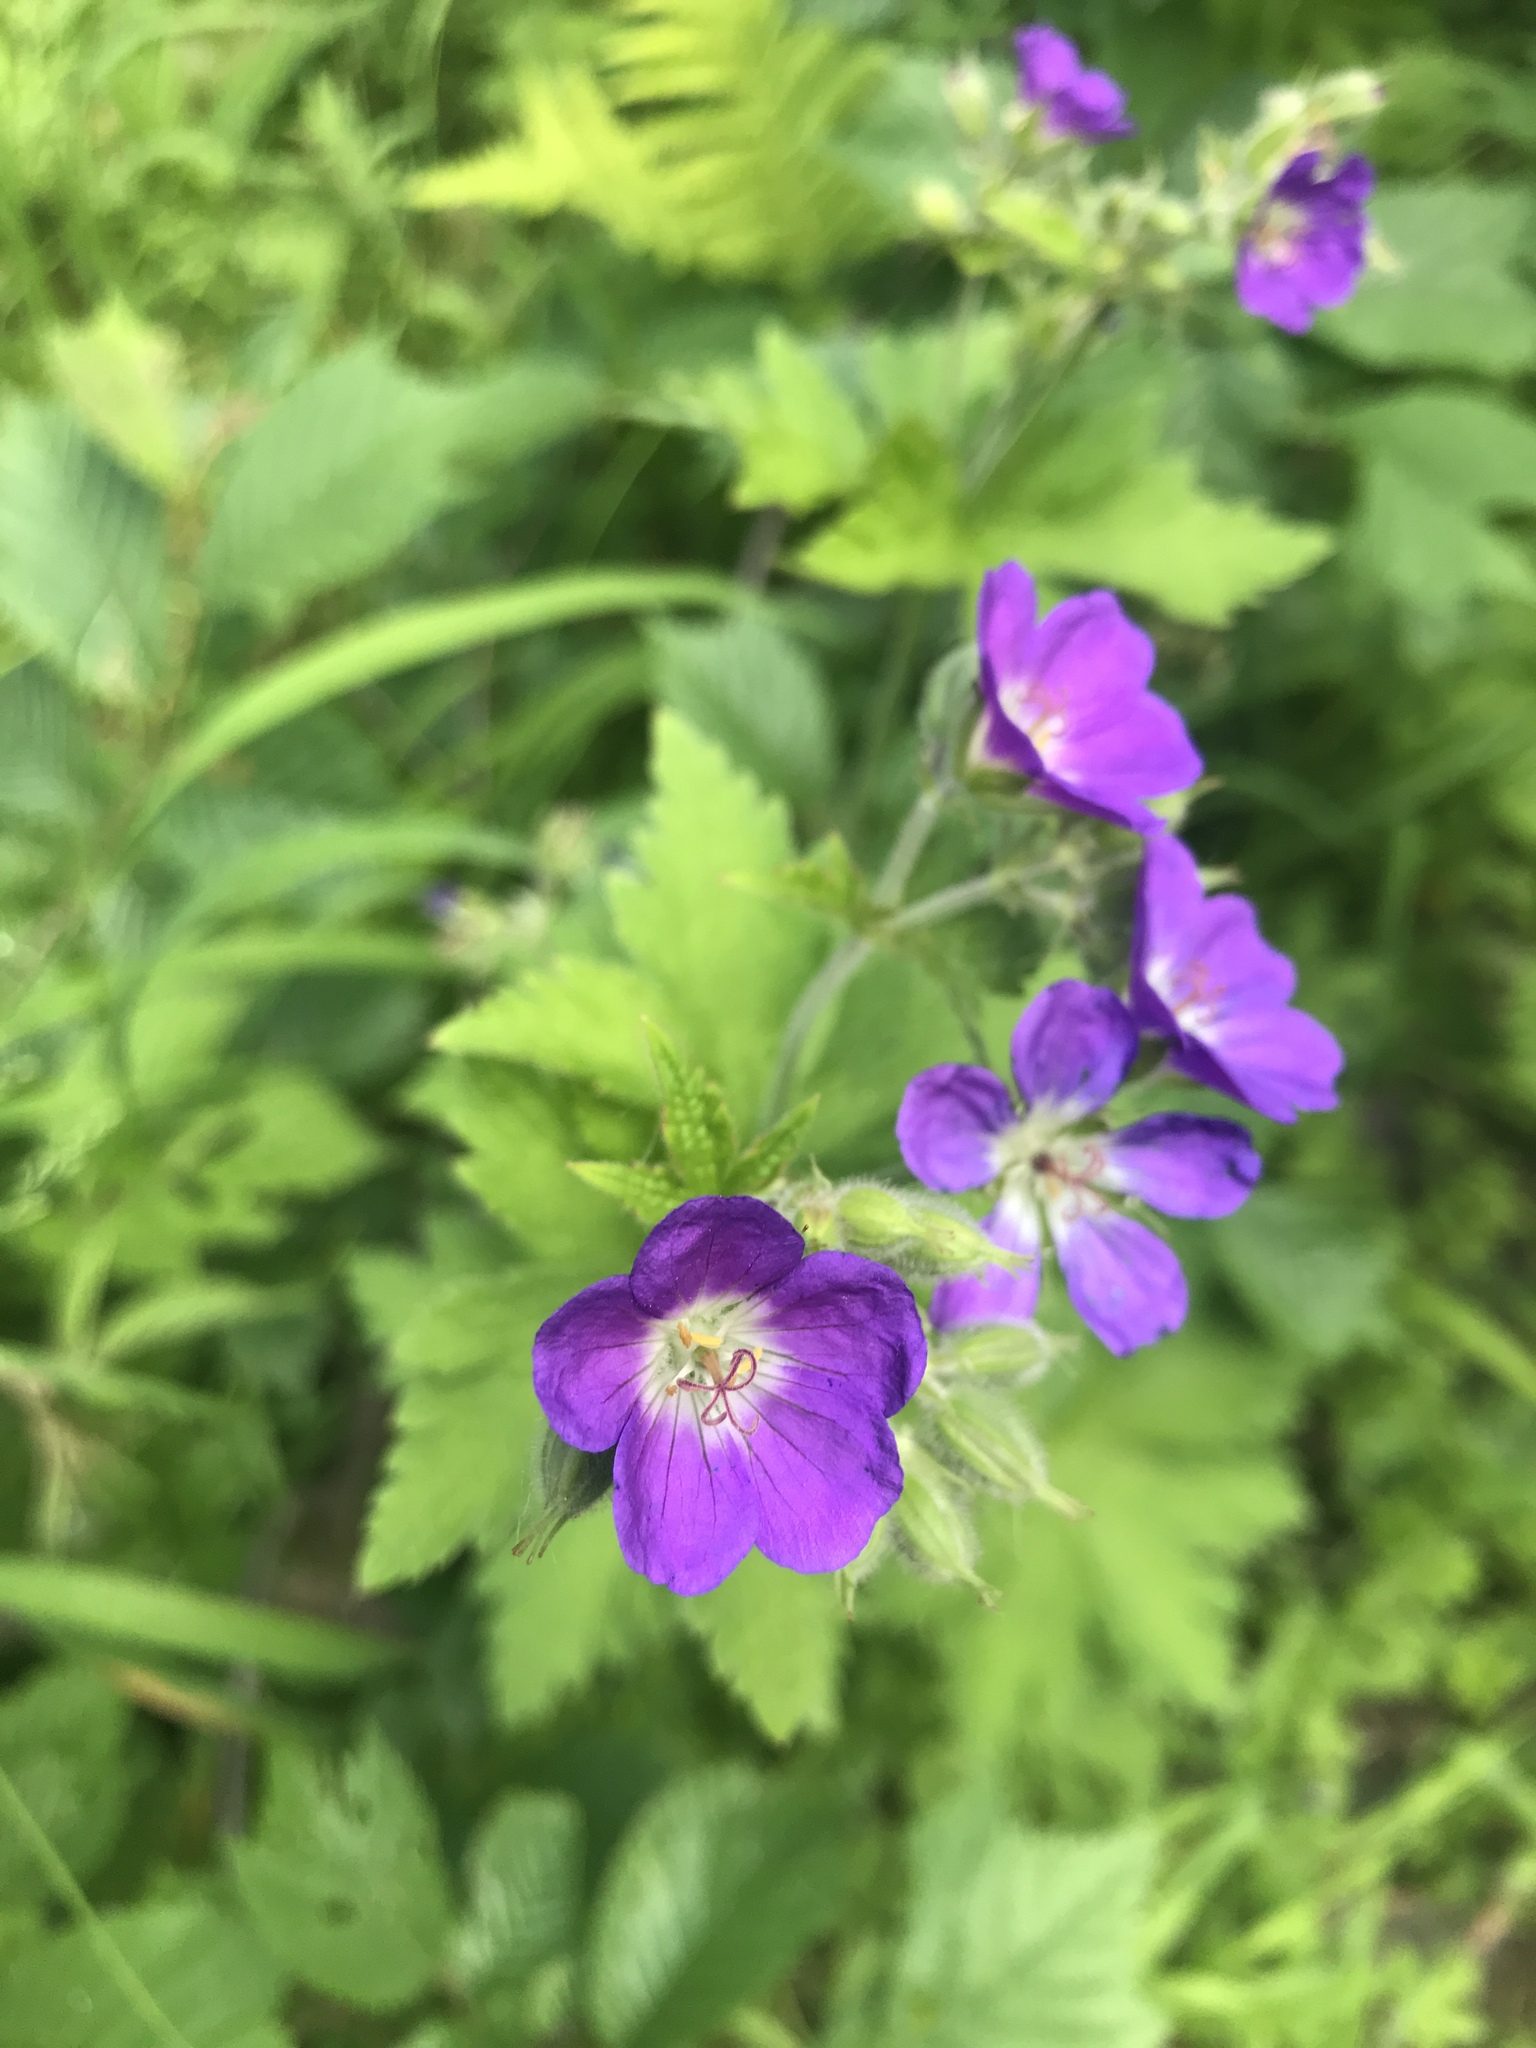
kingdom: Plantae
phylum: Tracheophyta
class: Magnoliopsida
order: Geraniales
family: Geraniaceae
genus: Geranium
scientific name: Geranium sylvaticum
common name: Wood crane's-bill
